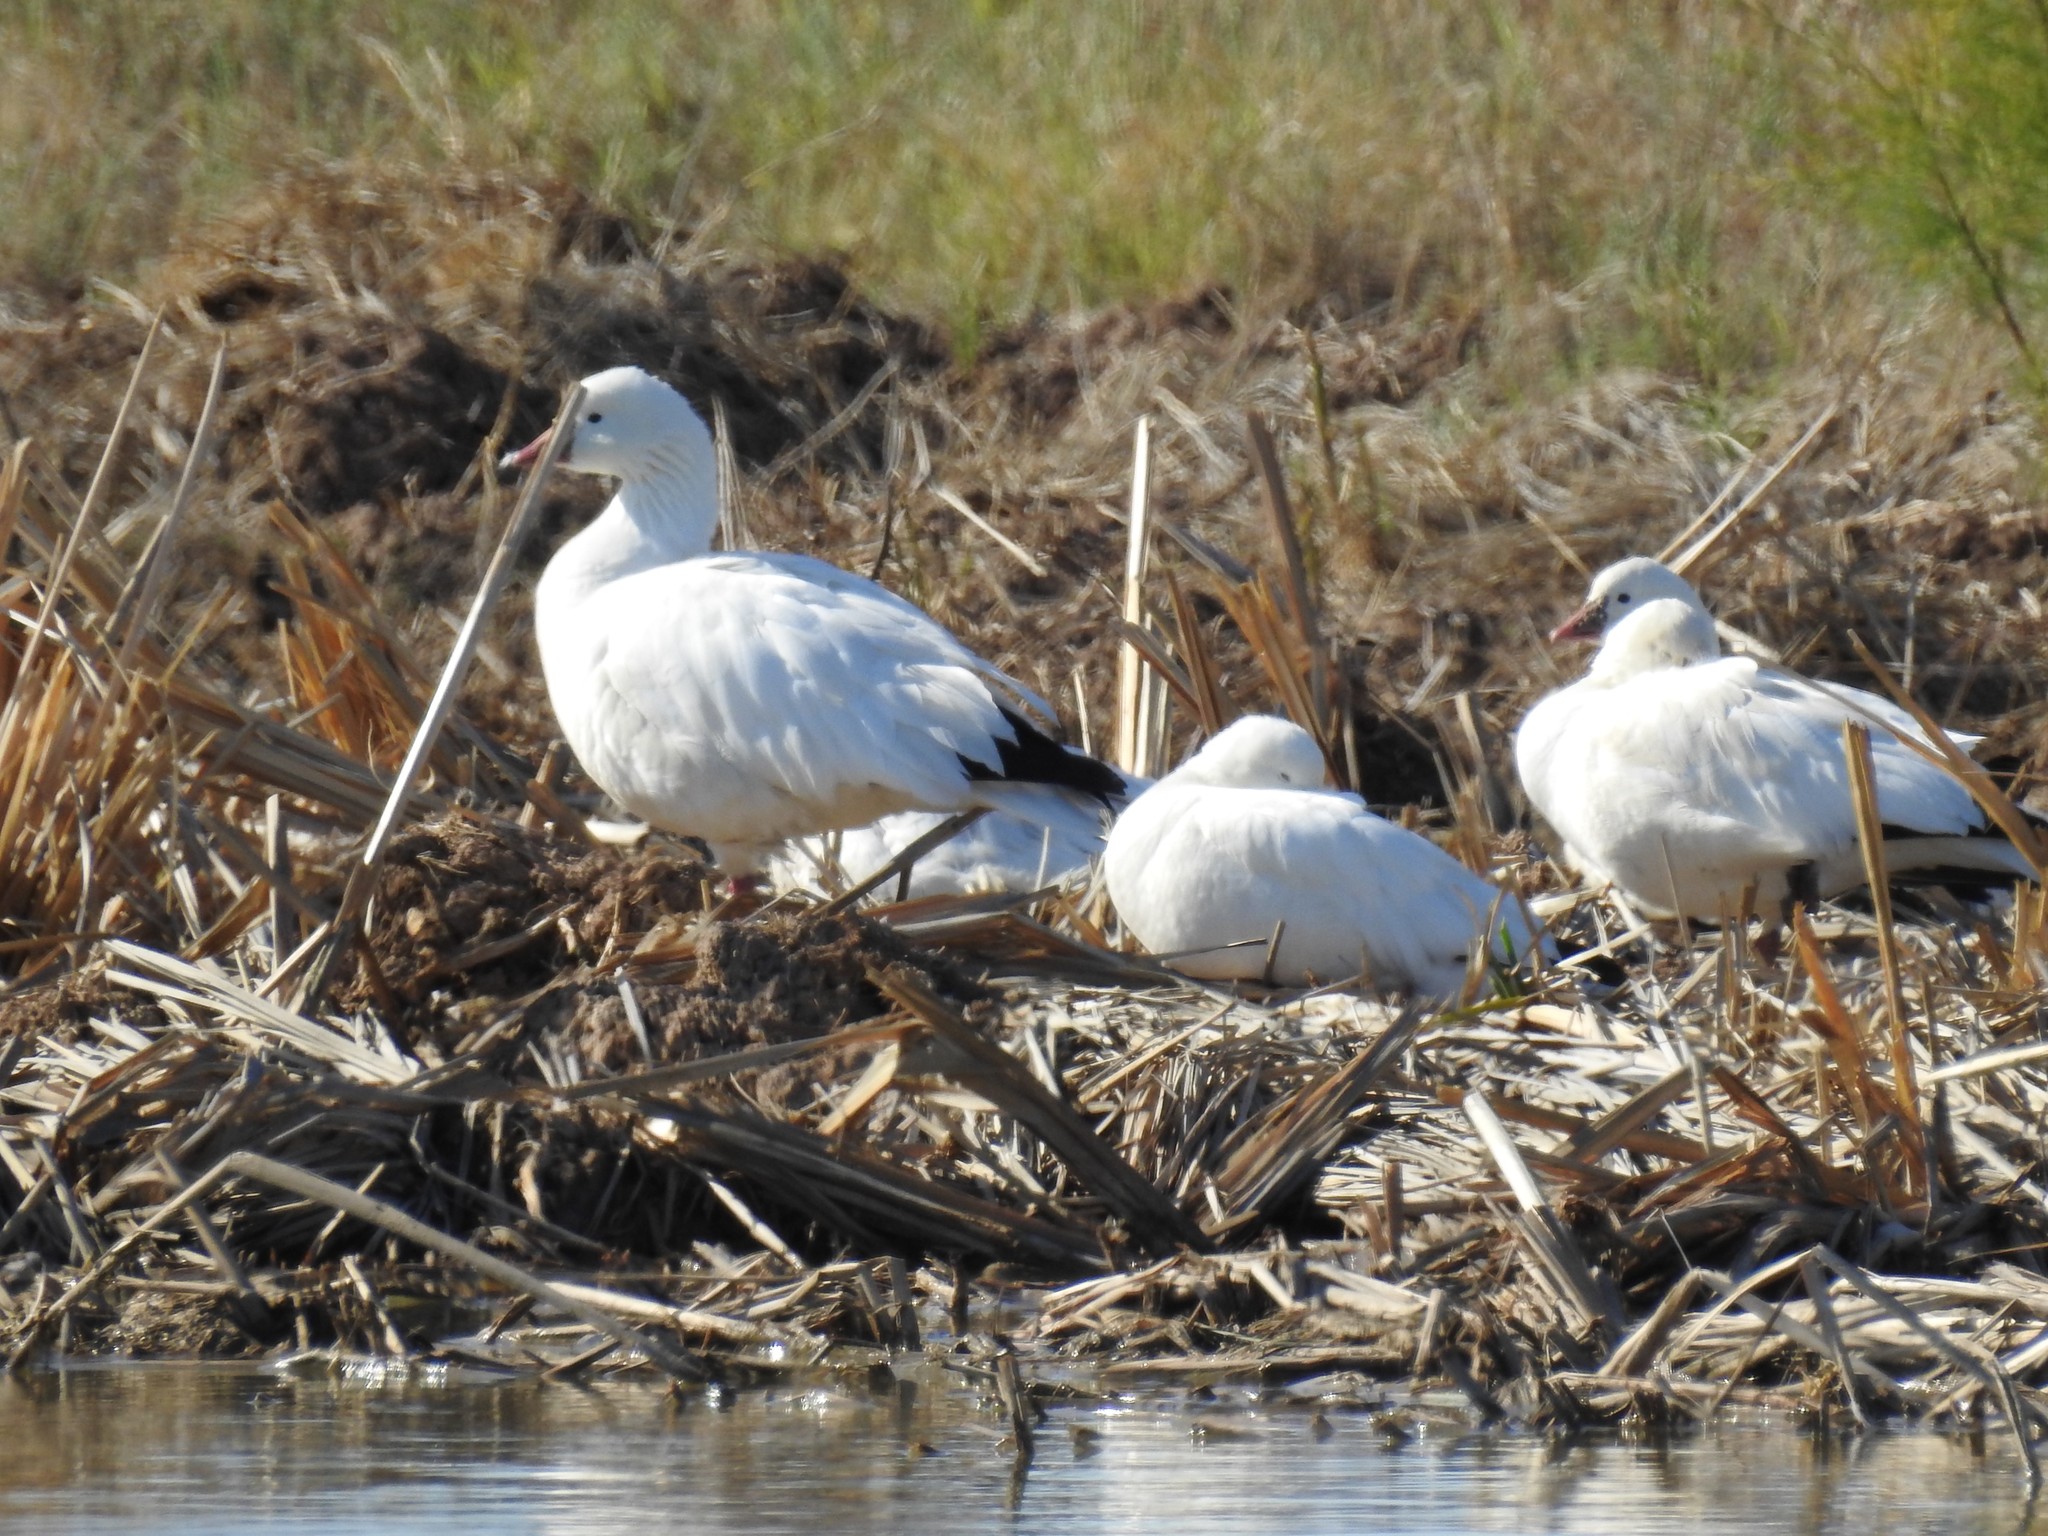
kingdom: Animalia
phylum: Chordata
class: Aves
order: Anseriformes
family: Anatidae
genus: Anser
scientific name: Anser rossii
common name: Ross's goose
